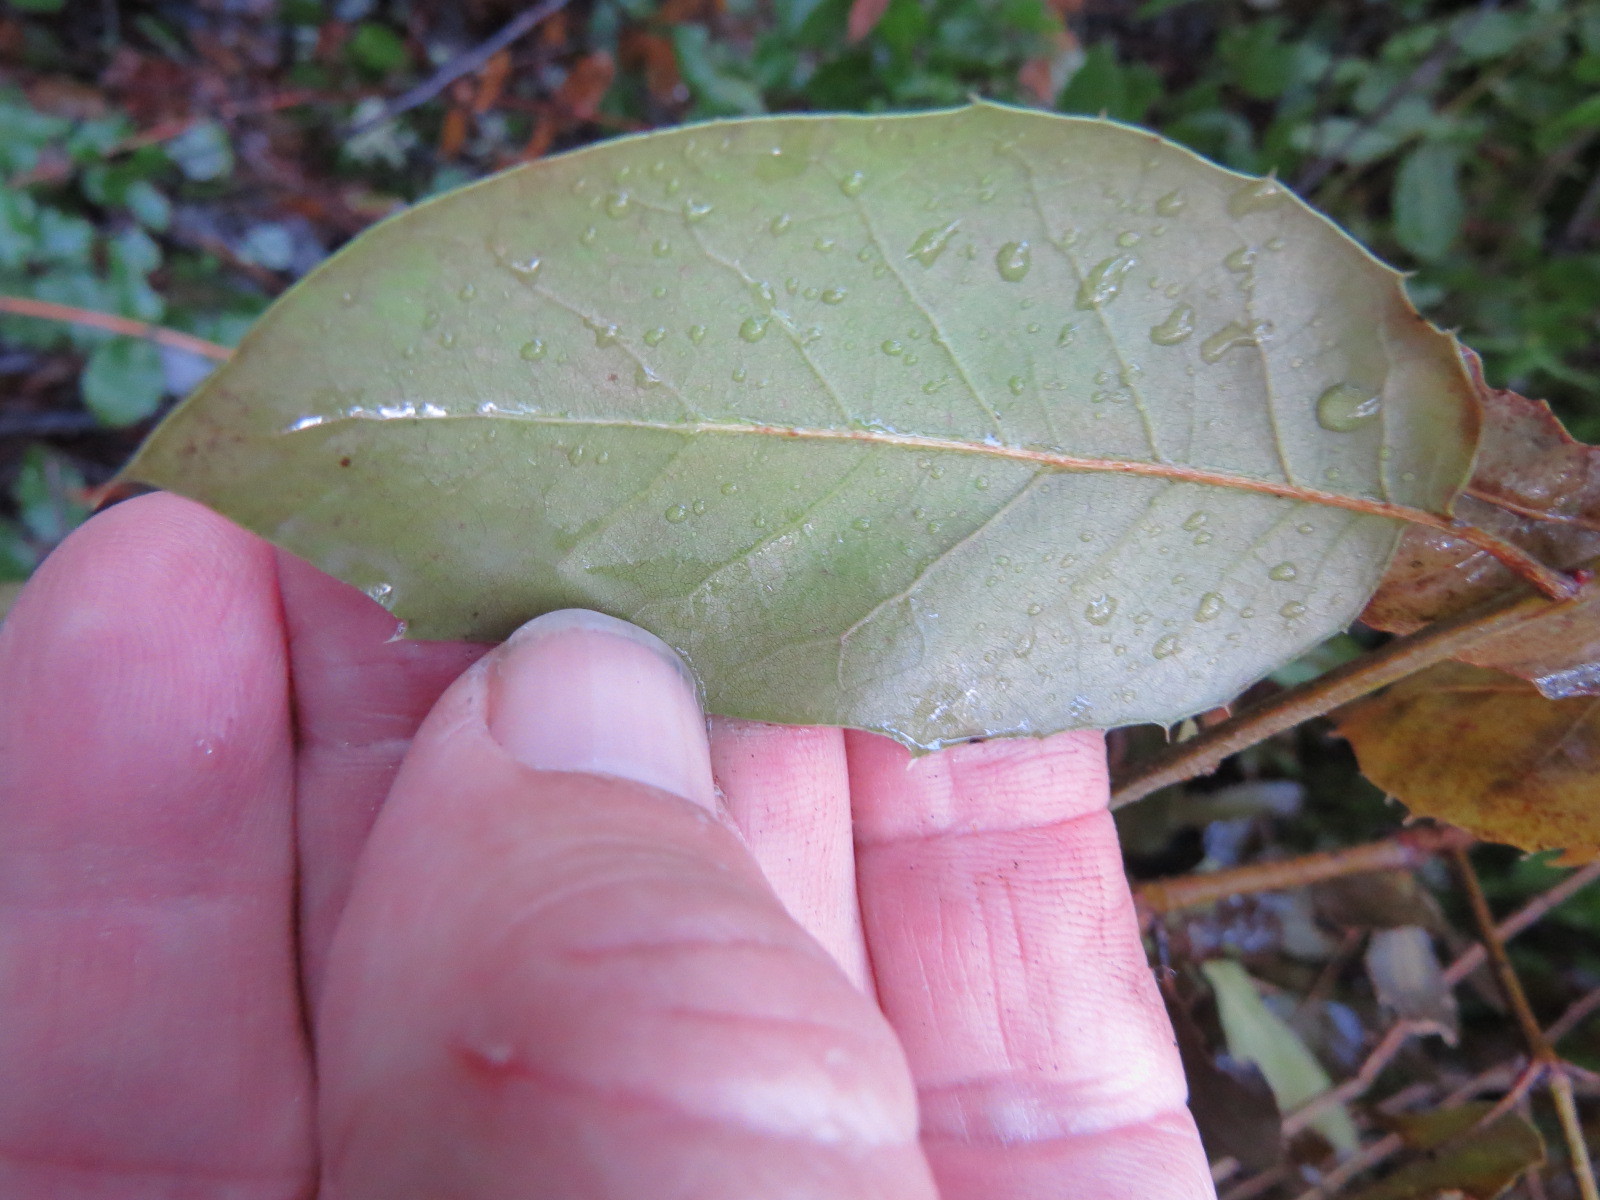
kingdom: Animalia
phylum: Arthropoda
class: Insecta
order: Hymenoptera
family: Cynipidae
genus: Amphibolips
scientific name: Amphibolips quercuspomiformis
